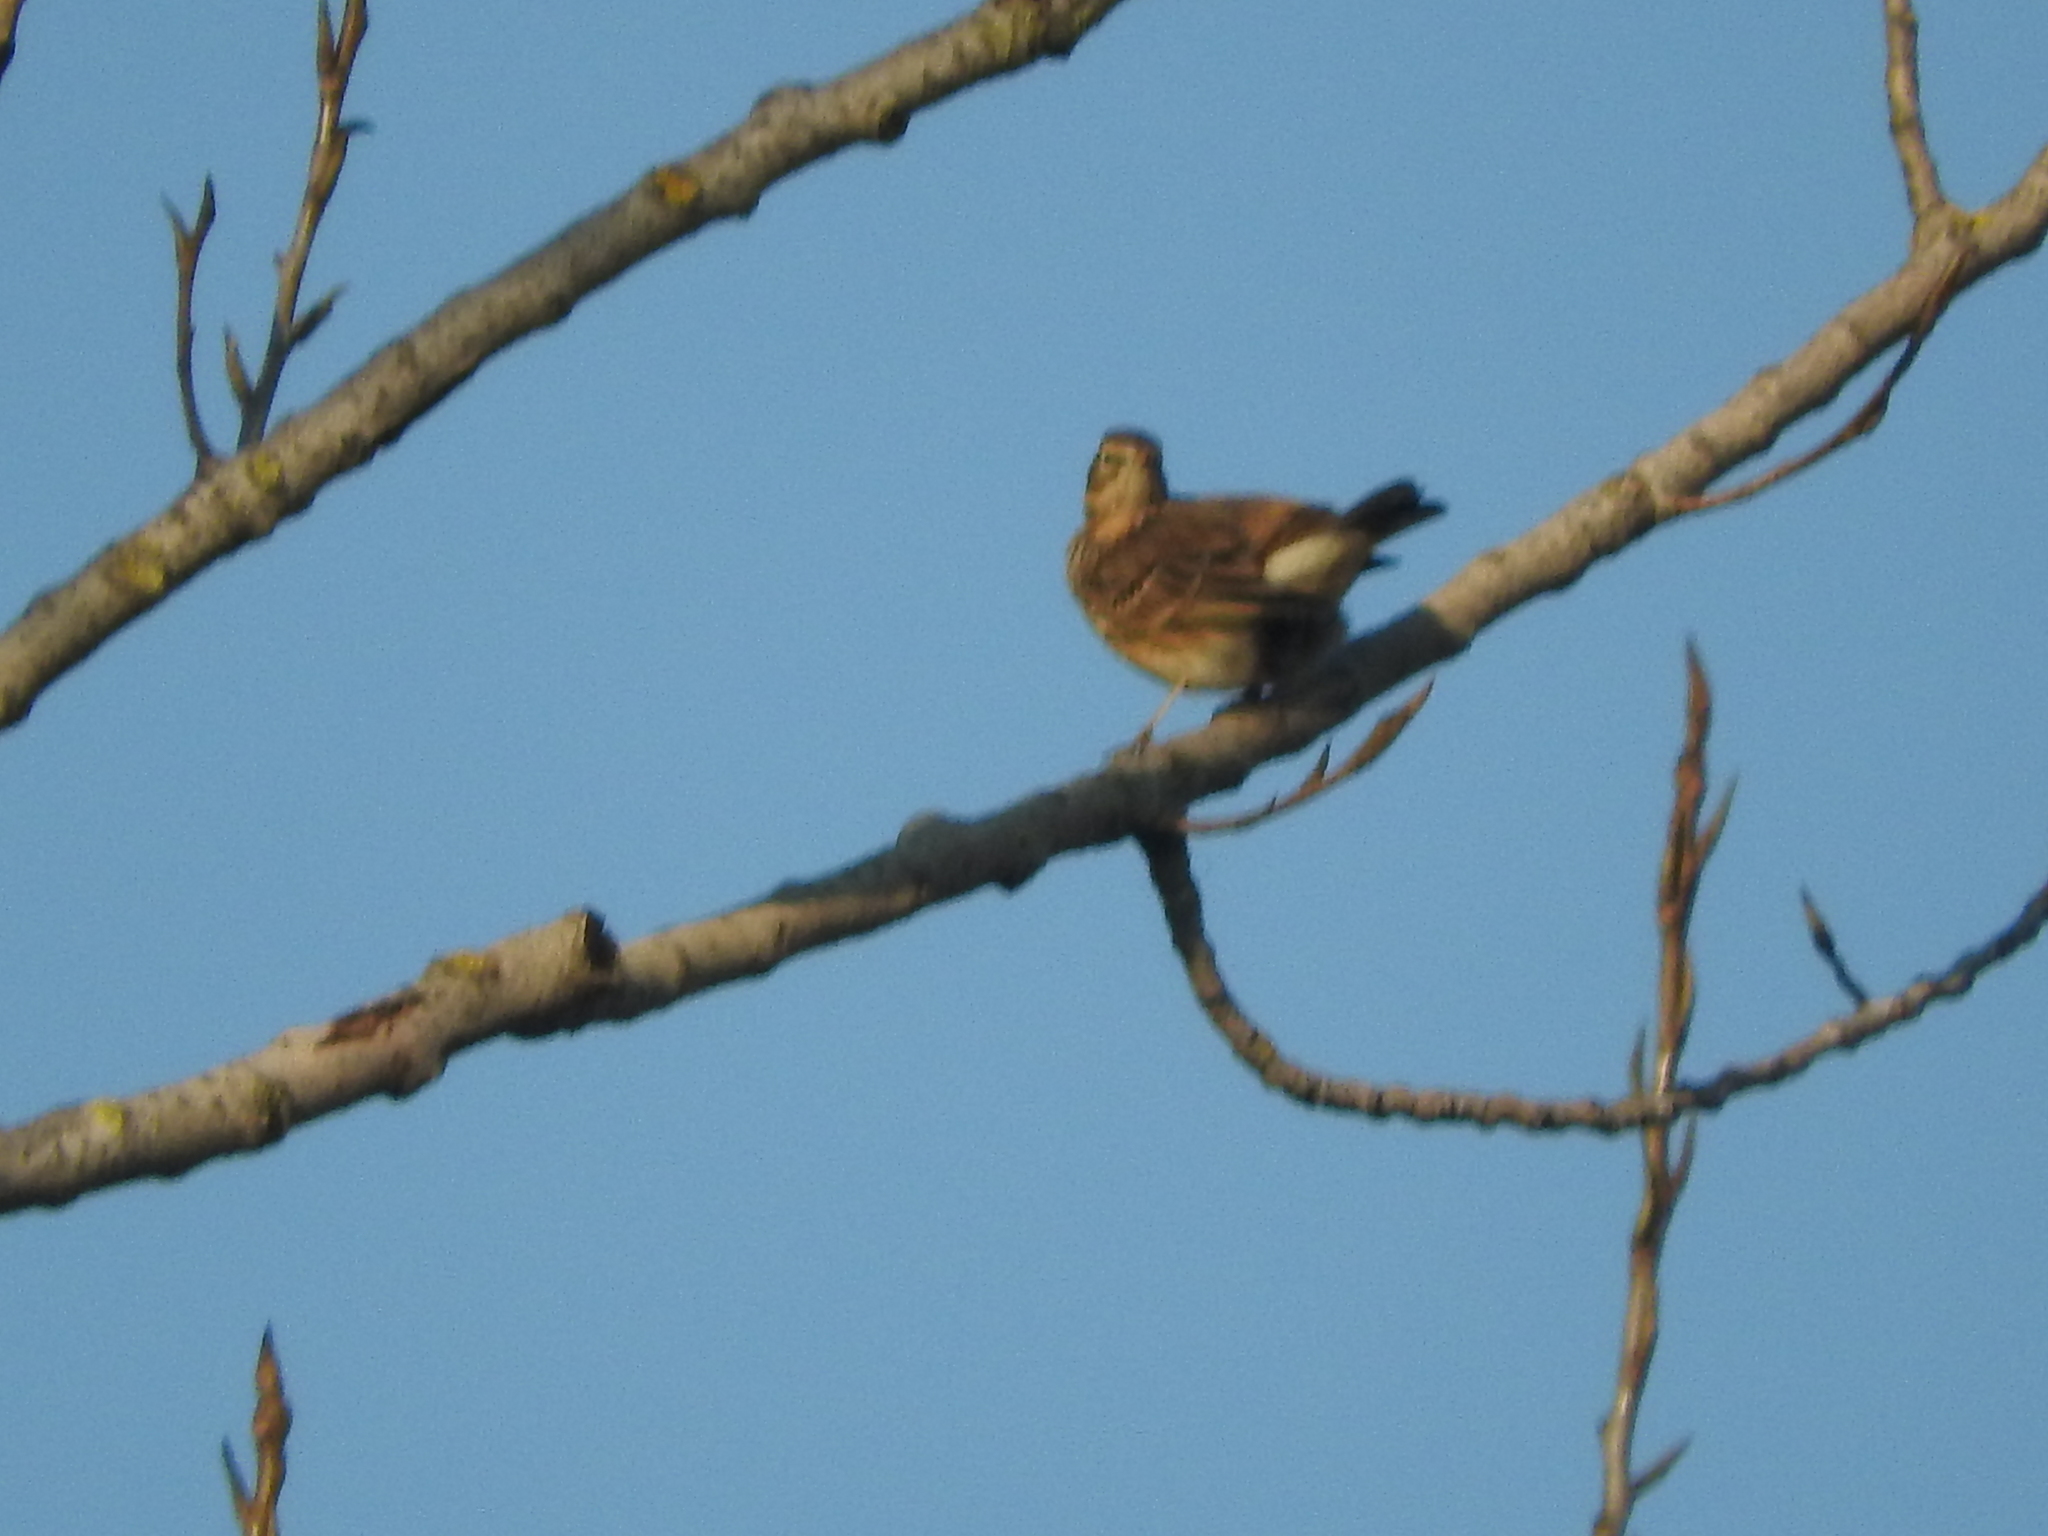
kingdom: Animalia
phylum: Chordata
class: Aves
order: Passeriformes
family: Motacillidae
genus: Anthus
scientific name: Anthus pratensis
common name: Meadow pipit
